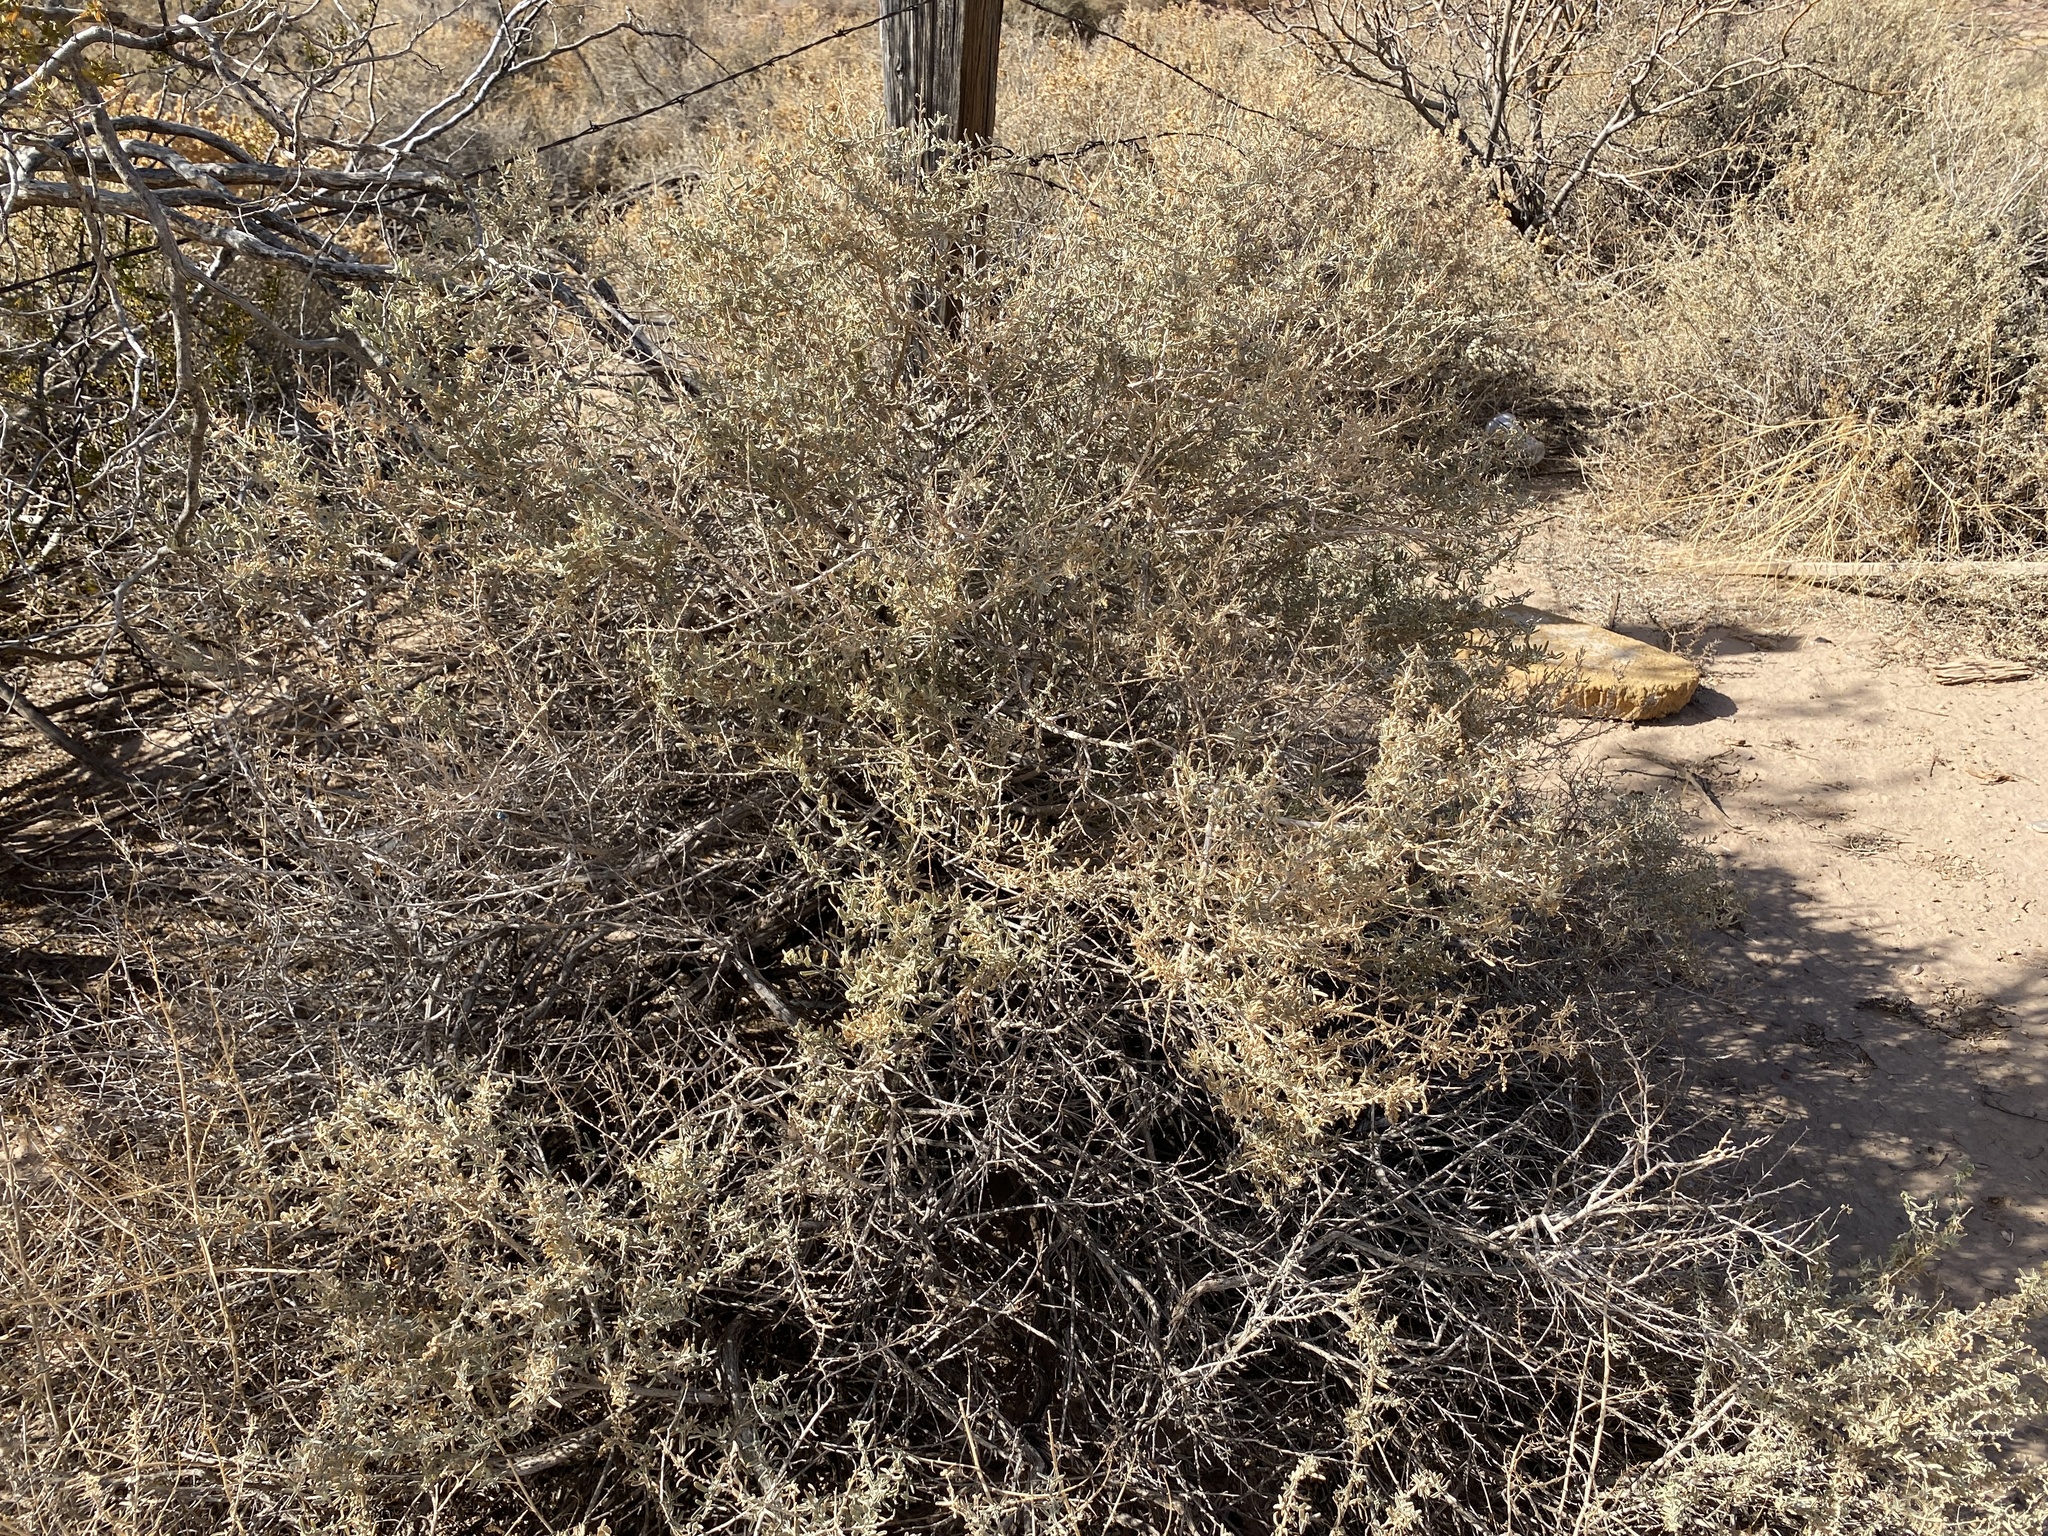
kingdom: Plantae
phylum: Tracheophyta
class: Magnoliopsida
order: Caryophyllales
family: Amaranthaceae
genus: Atriplex
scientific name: Atriplex canescens
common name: Four-wing saltbush
